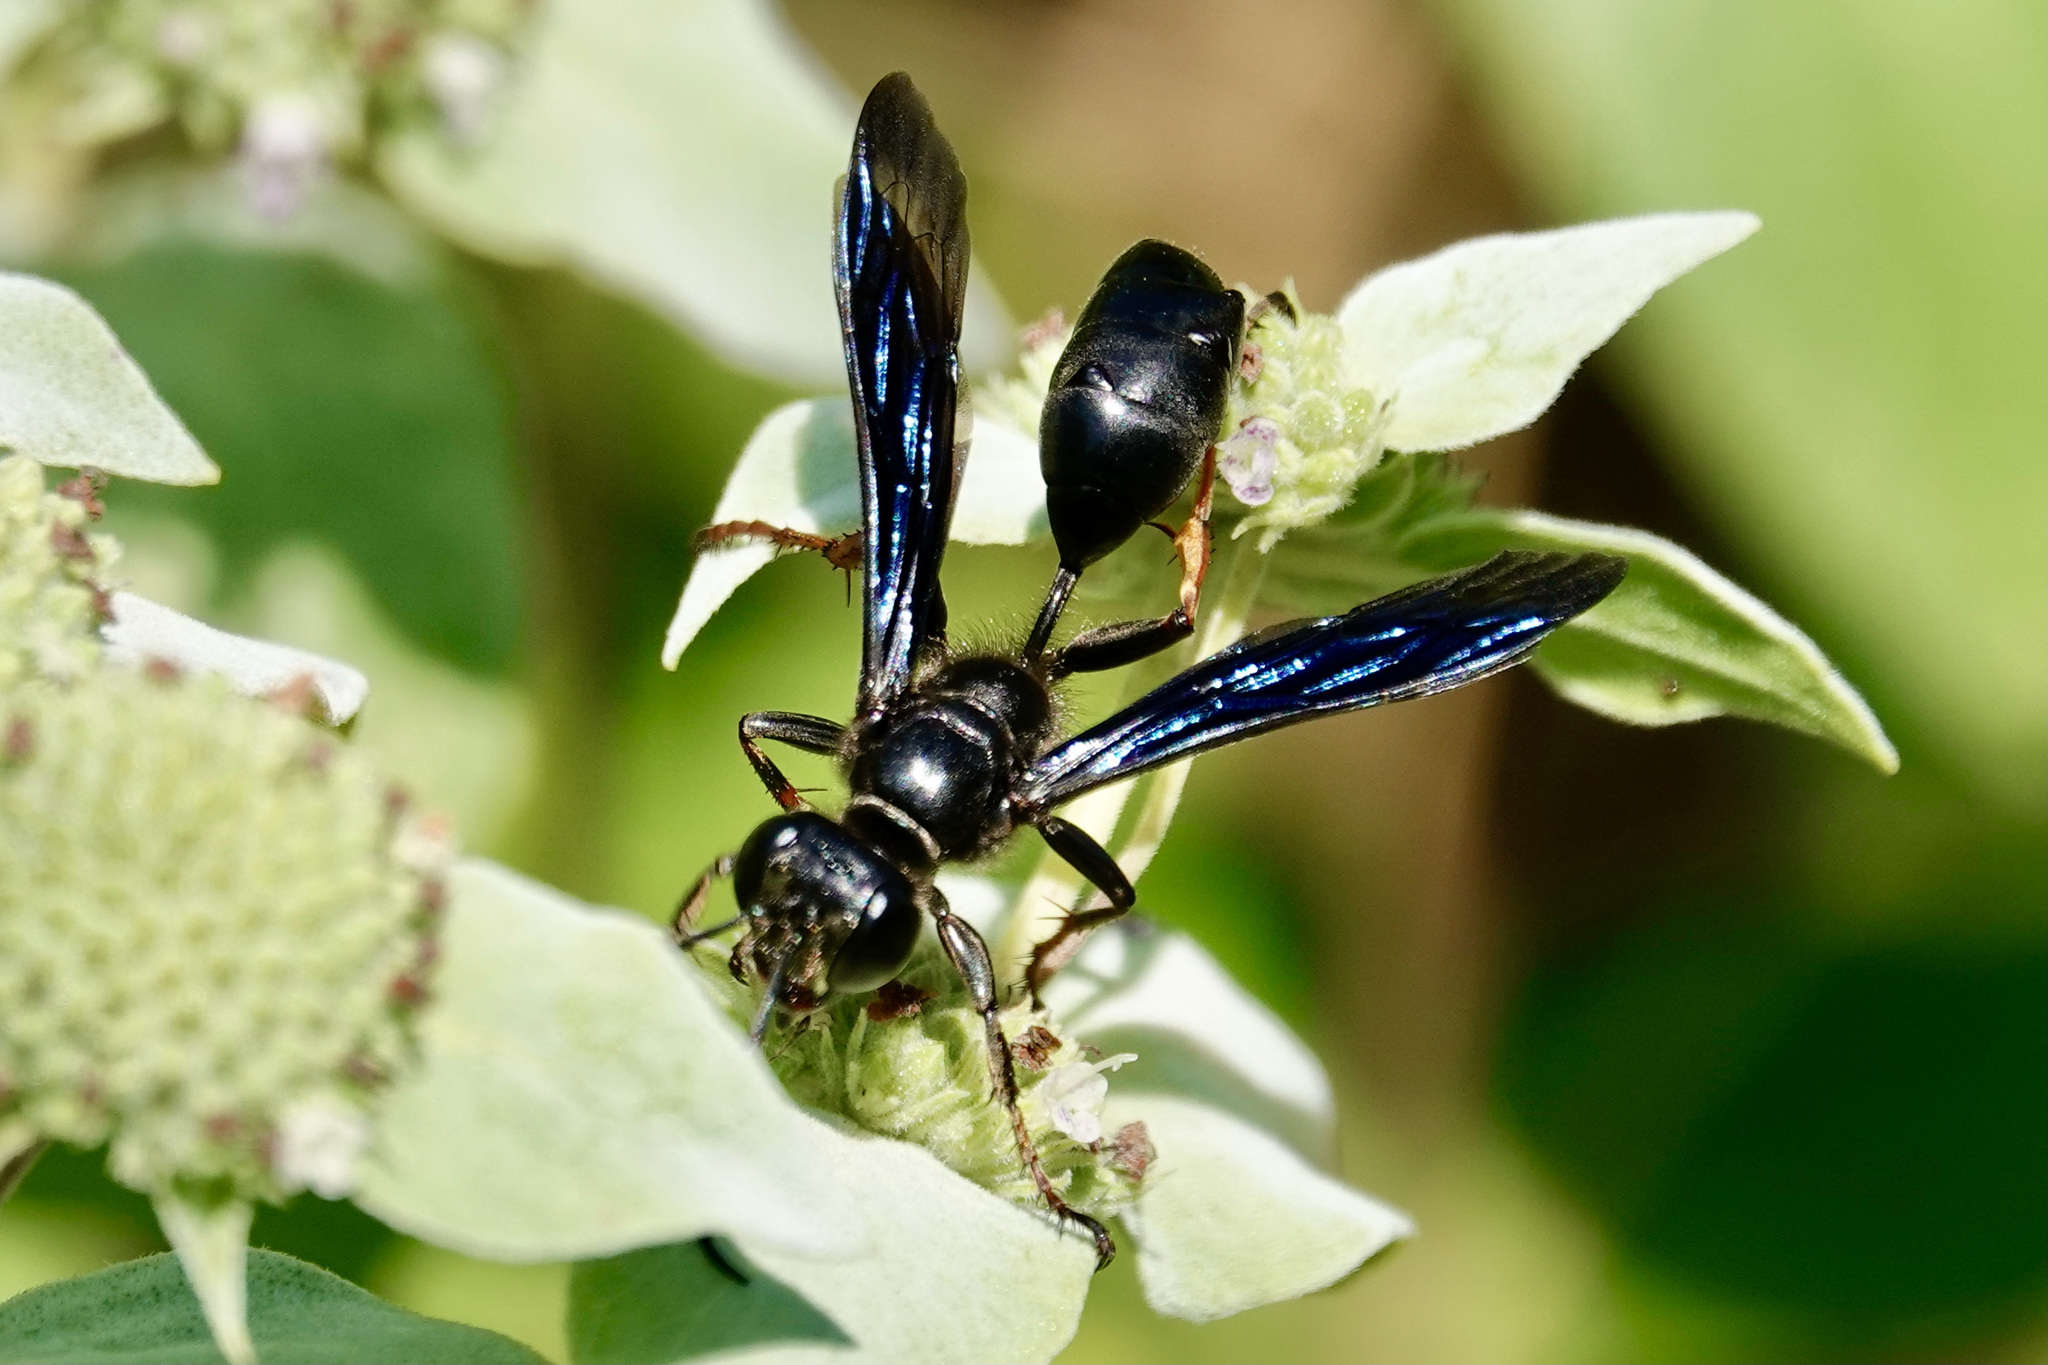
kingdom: Animalia
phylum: Arthropoda
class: Insecta
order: Hymenoptera
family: Sphecidae
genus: Isodontia
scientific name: Isodontia auripes
